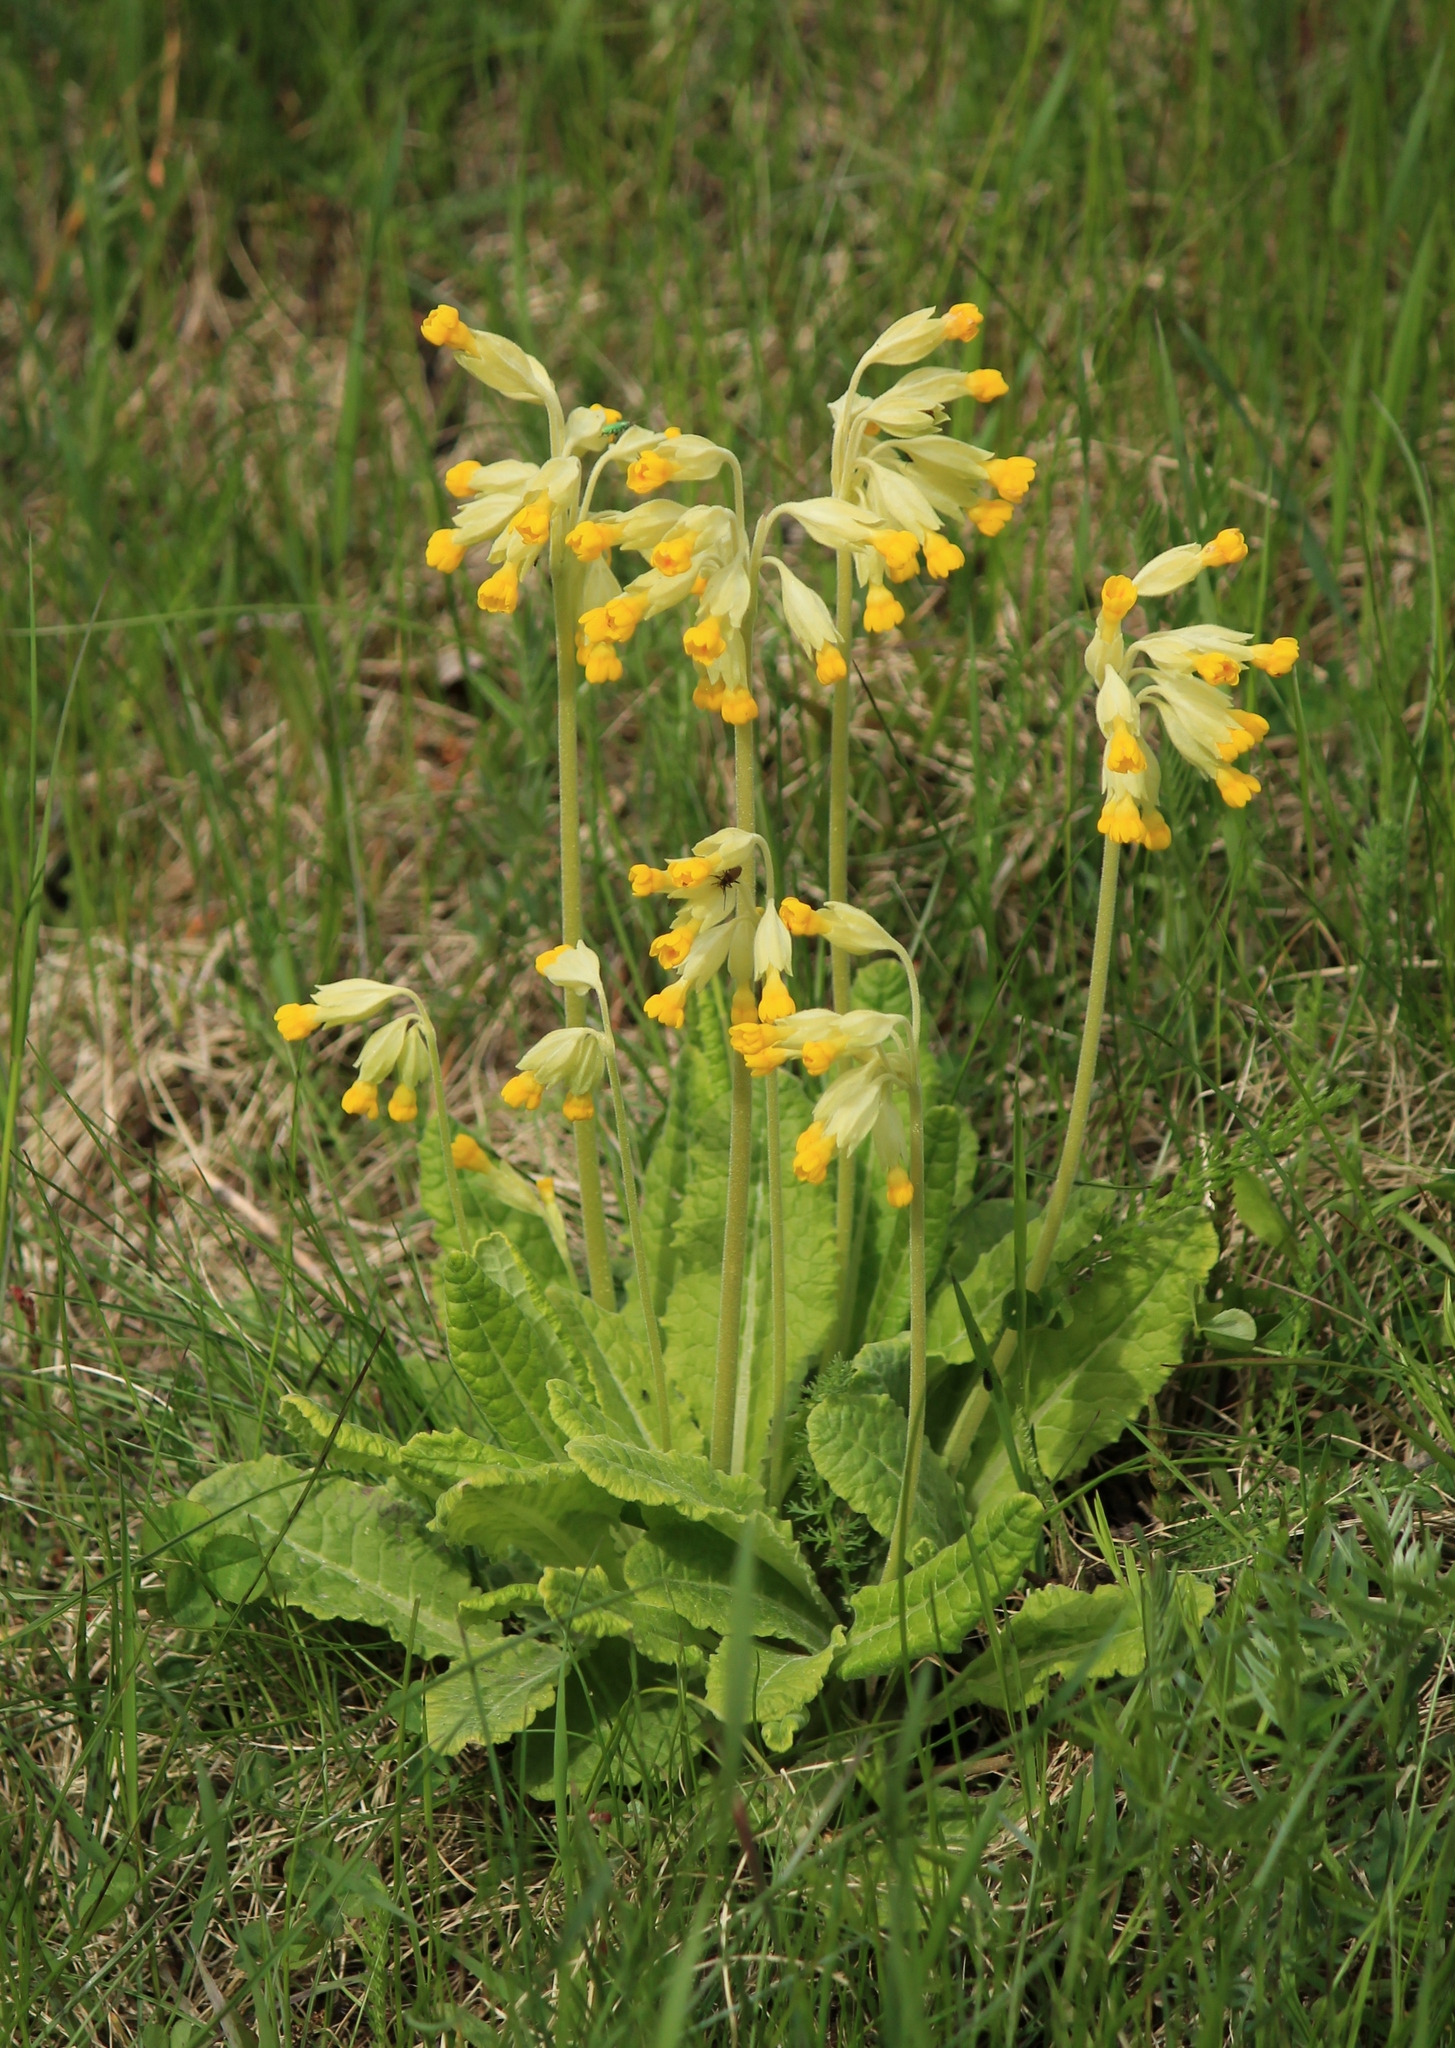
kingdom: Plantae
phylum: Tracheophyta
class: Magnoliopsida
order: Ericales
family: Primulaceae
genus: Primula
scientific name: Primula veris
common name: Cowslip
